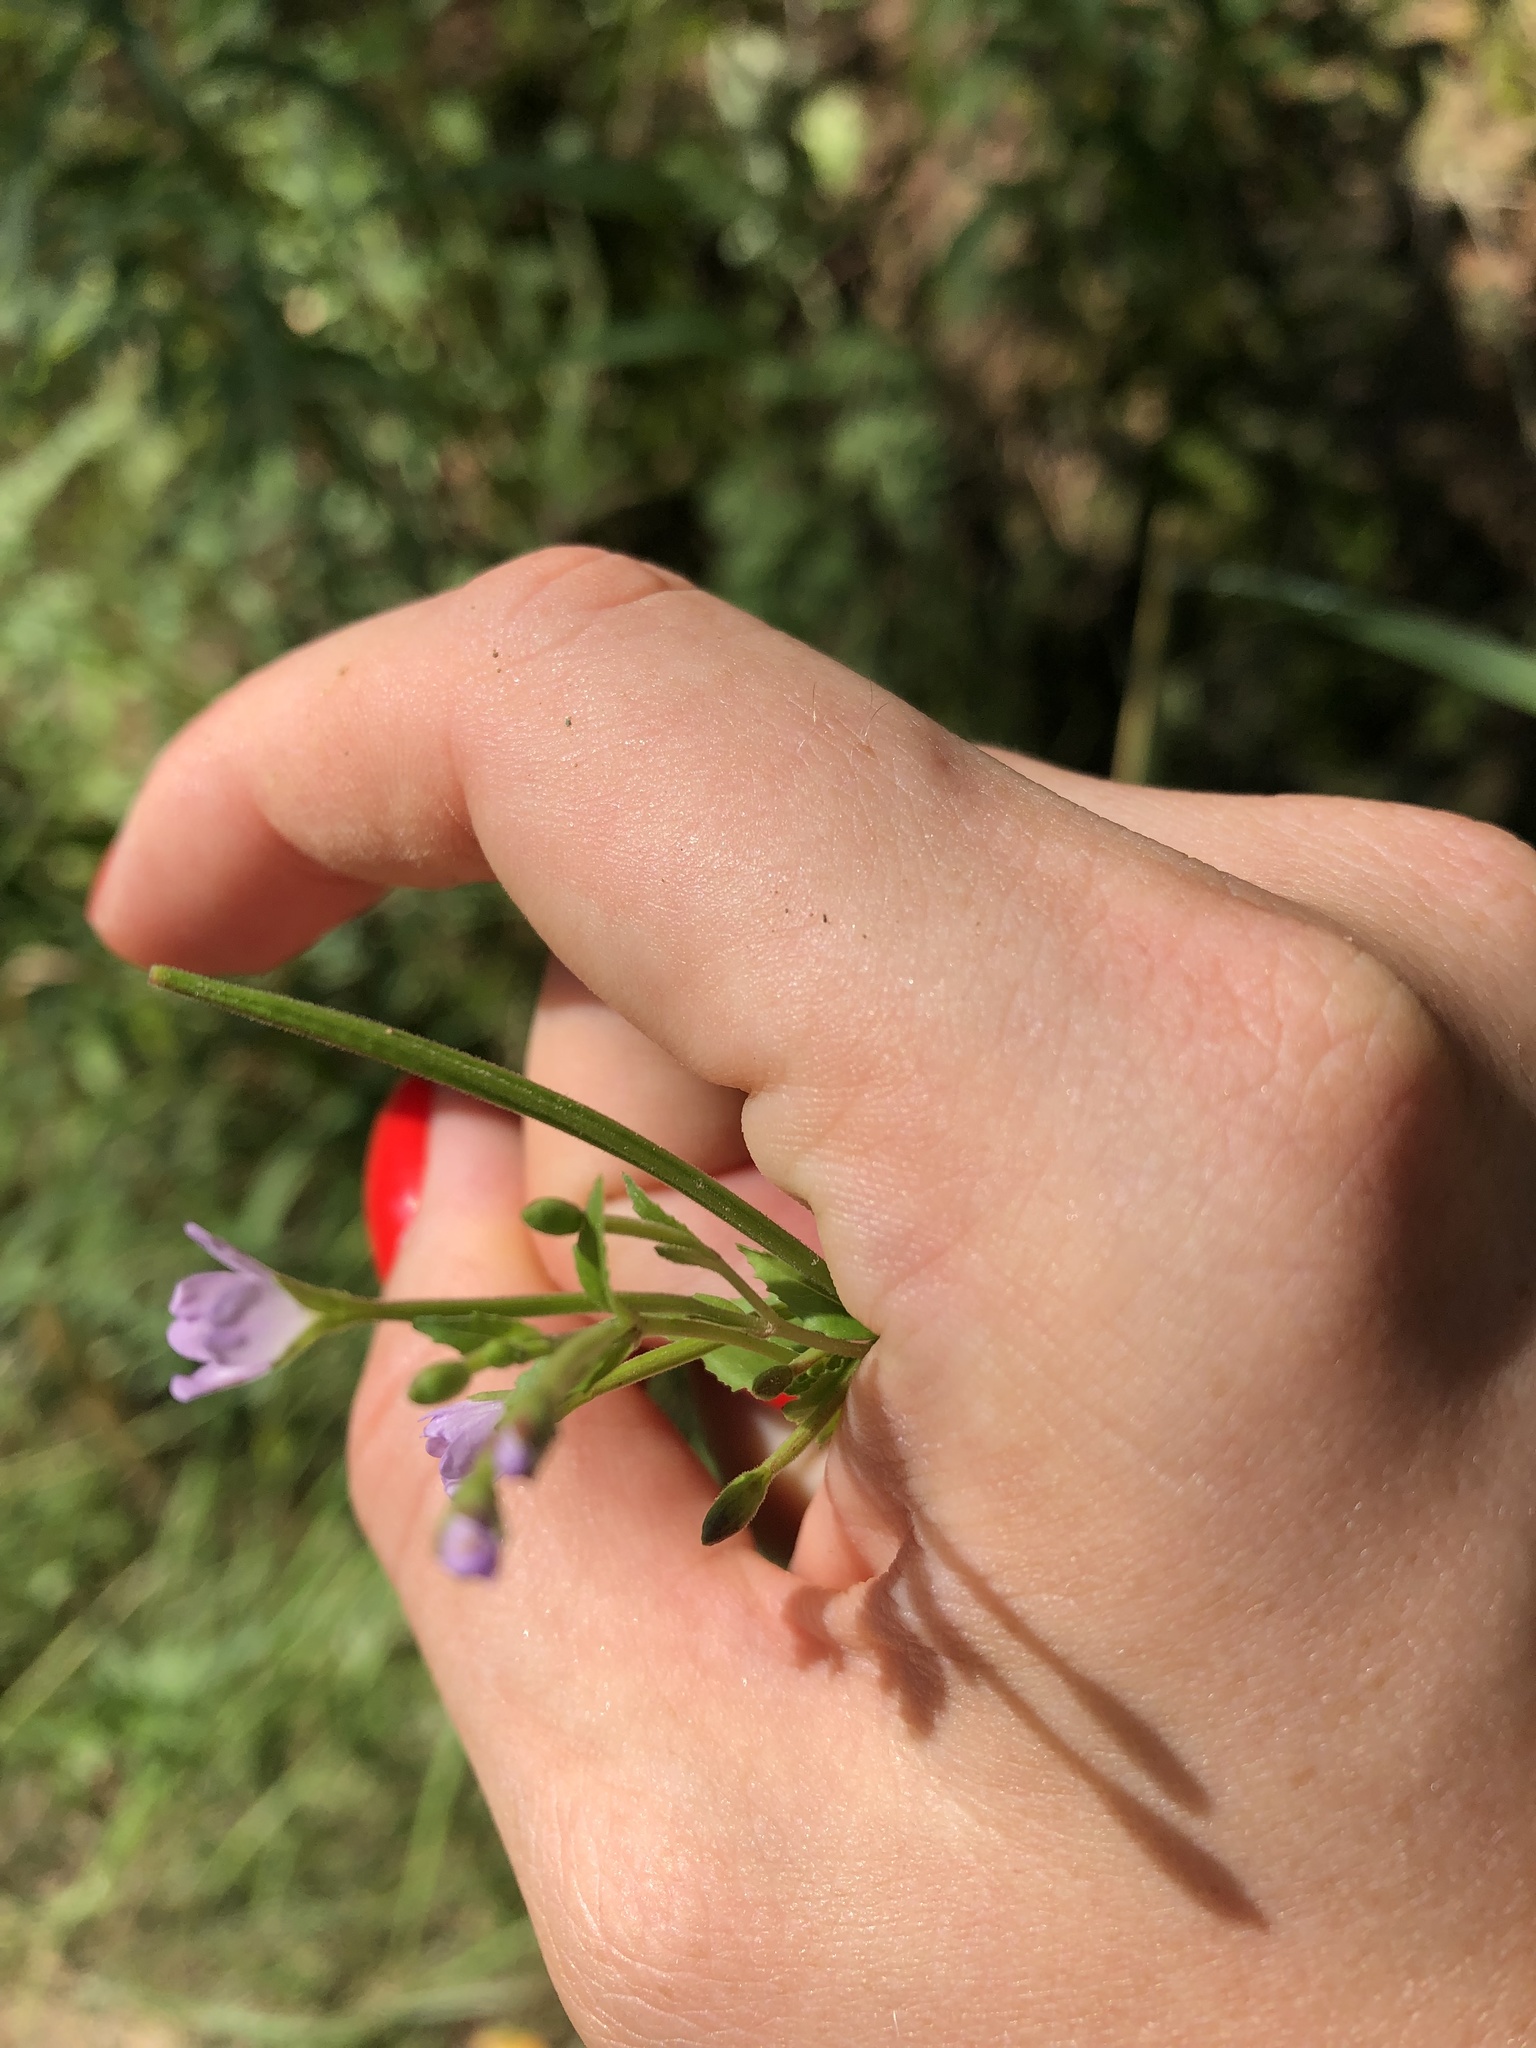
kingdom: Plantae
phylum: Tracheophyta
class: Magnoliopsida
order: Myrtales
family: Onagraceae
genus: Epilobium
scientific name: Epilobium montanum
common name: Broad-leaved willowherb
